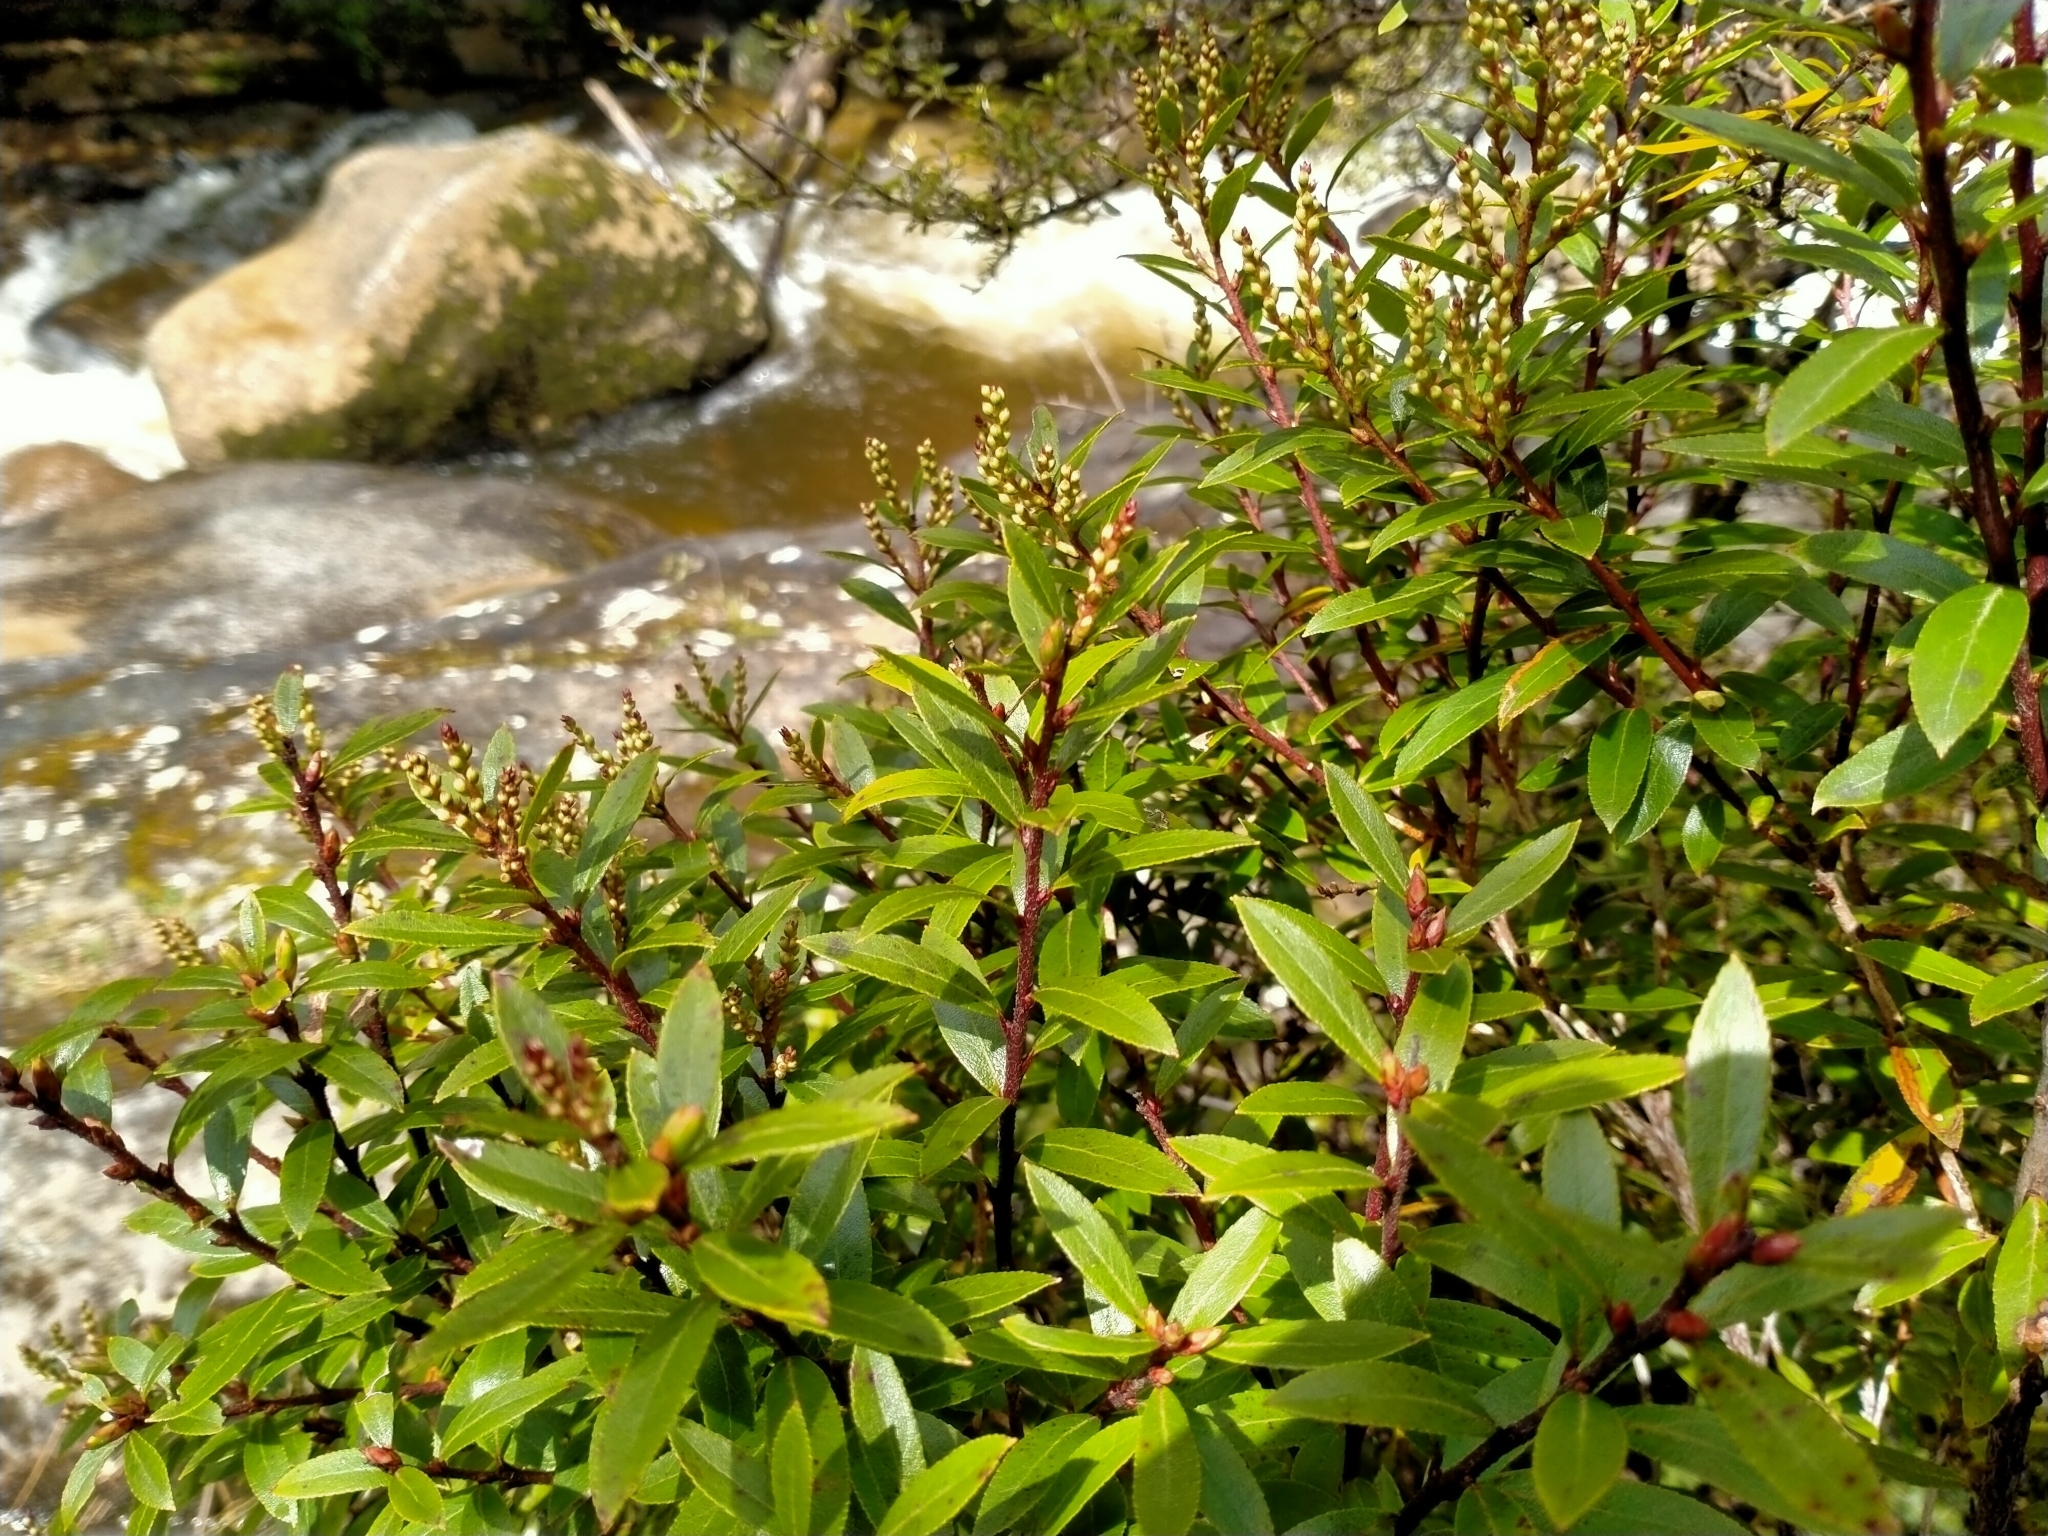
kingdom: Plantae
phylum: Tracheophyta
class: Magnoliopsida
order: Ericales
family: Ericaceae
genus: Gaultheria
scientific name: Gaultheria rupestris
